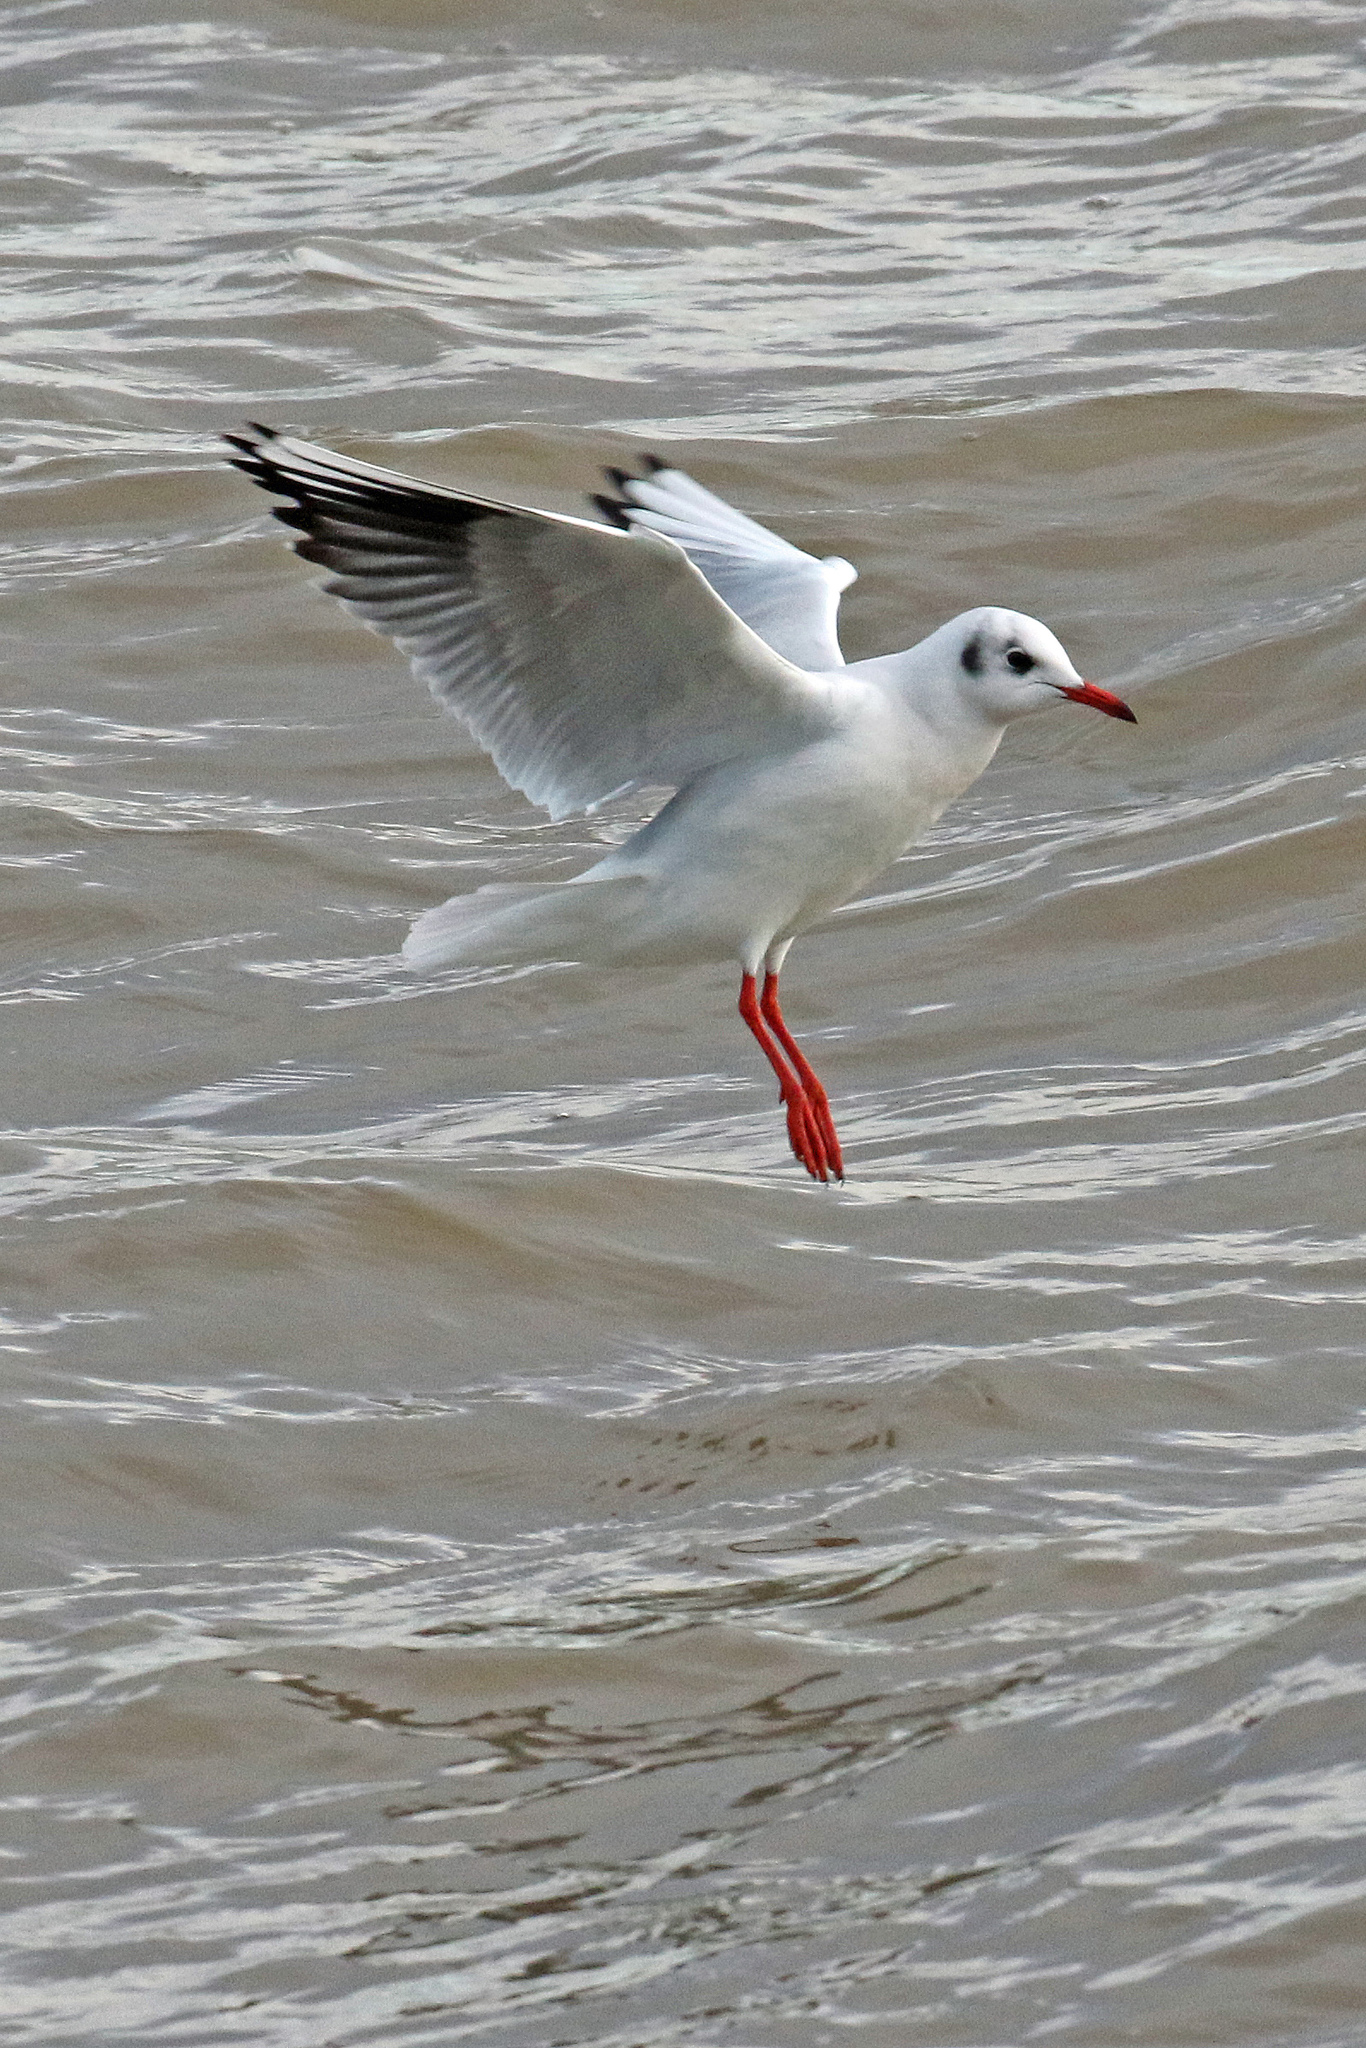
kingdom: Animalia
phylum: Chordata
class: Aves
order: Charadriiformes
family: Laridae
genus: Chroicocephalus
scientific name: Chroicocephalus ridibundus
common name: Black-headed gull
